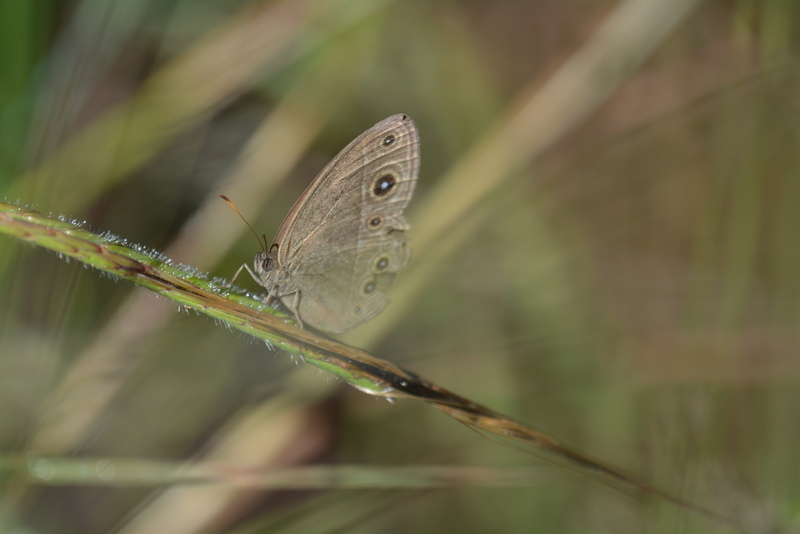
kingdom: Animalia
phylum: Arthropoda
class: Insecta
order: Lepidoptera
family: Nymphalidae
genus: Brakefieldia
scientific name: Brakefieldia simonsii
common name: Pale patroller
